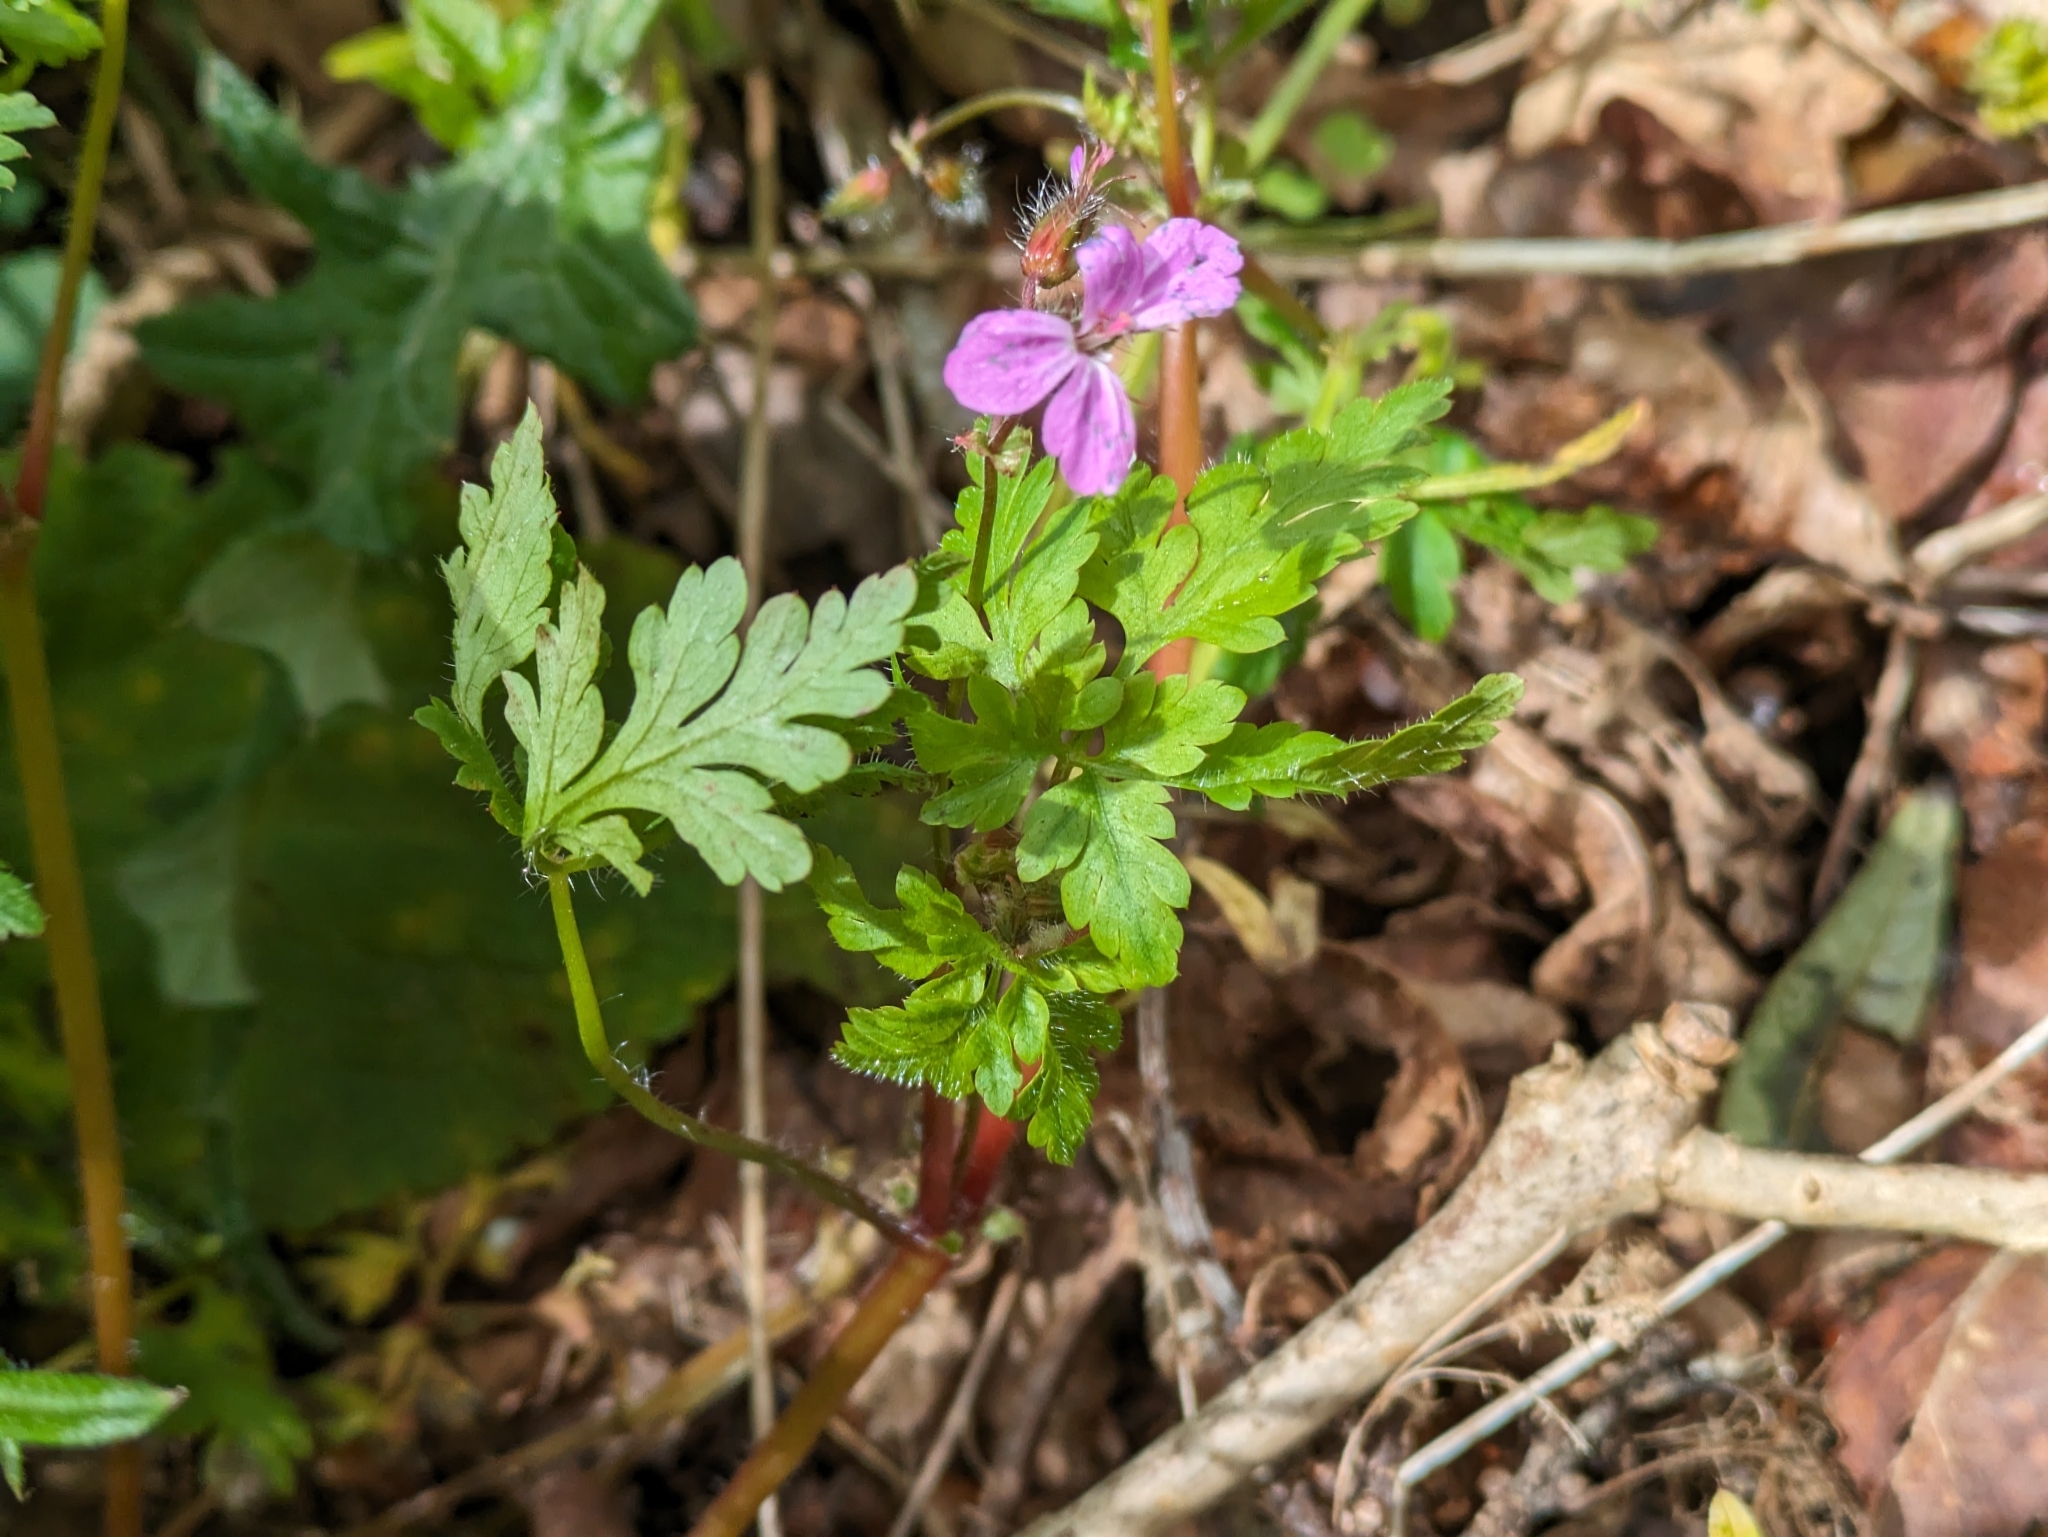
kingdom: Plantae
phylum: Tracheophyta
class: Magnoliopsida
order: Geraniales
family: Geraniaceae
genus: Geranium
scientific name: Geranium robertianum
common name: Herb-robert
